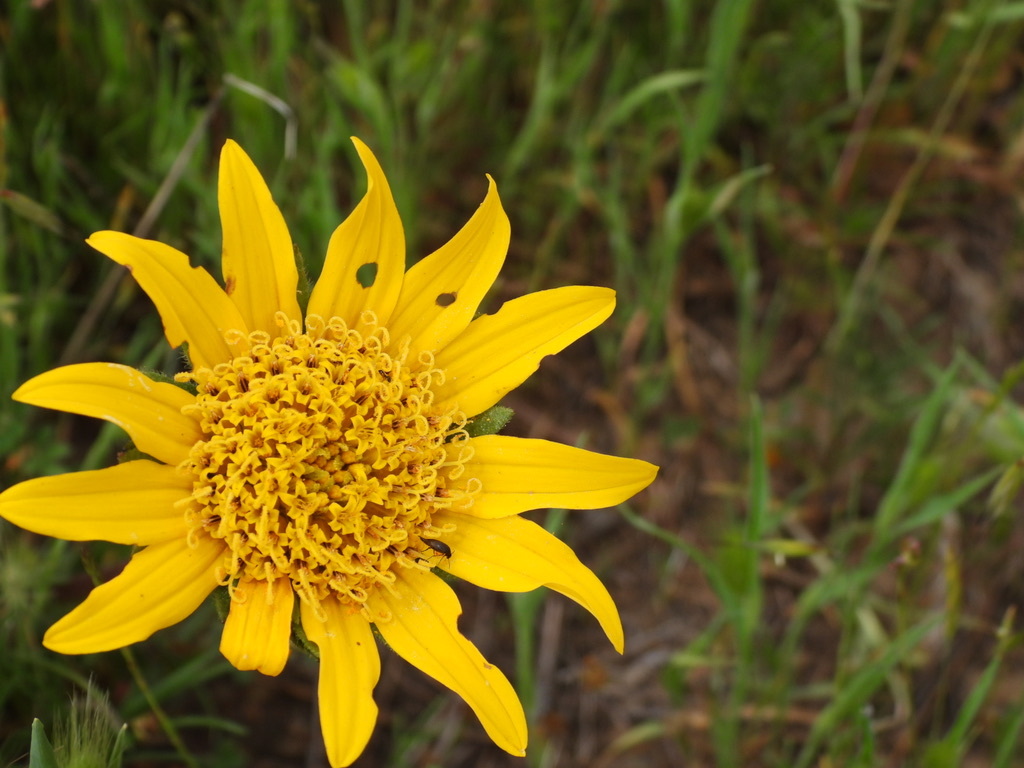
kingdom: Plantae
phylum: Tracheophyta
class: Magnoliopsida
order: Asterales
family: Asteraceae
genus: Wyethia
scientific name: Wyethia angustifolia
